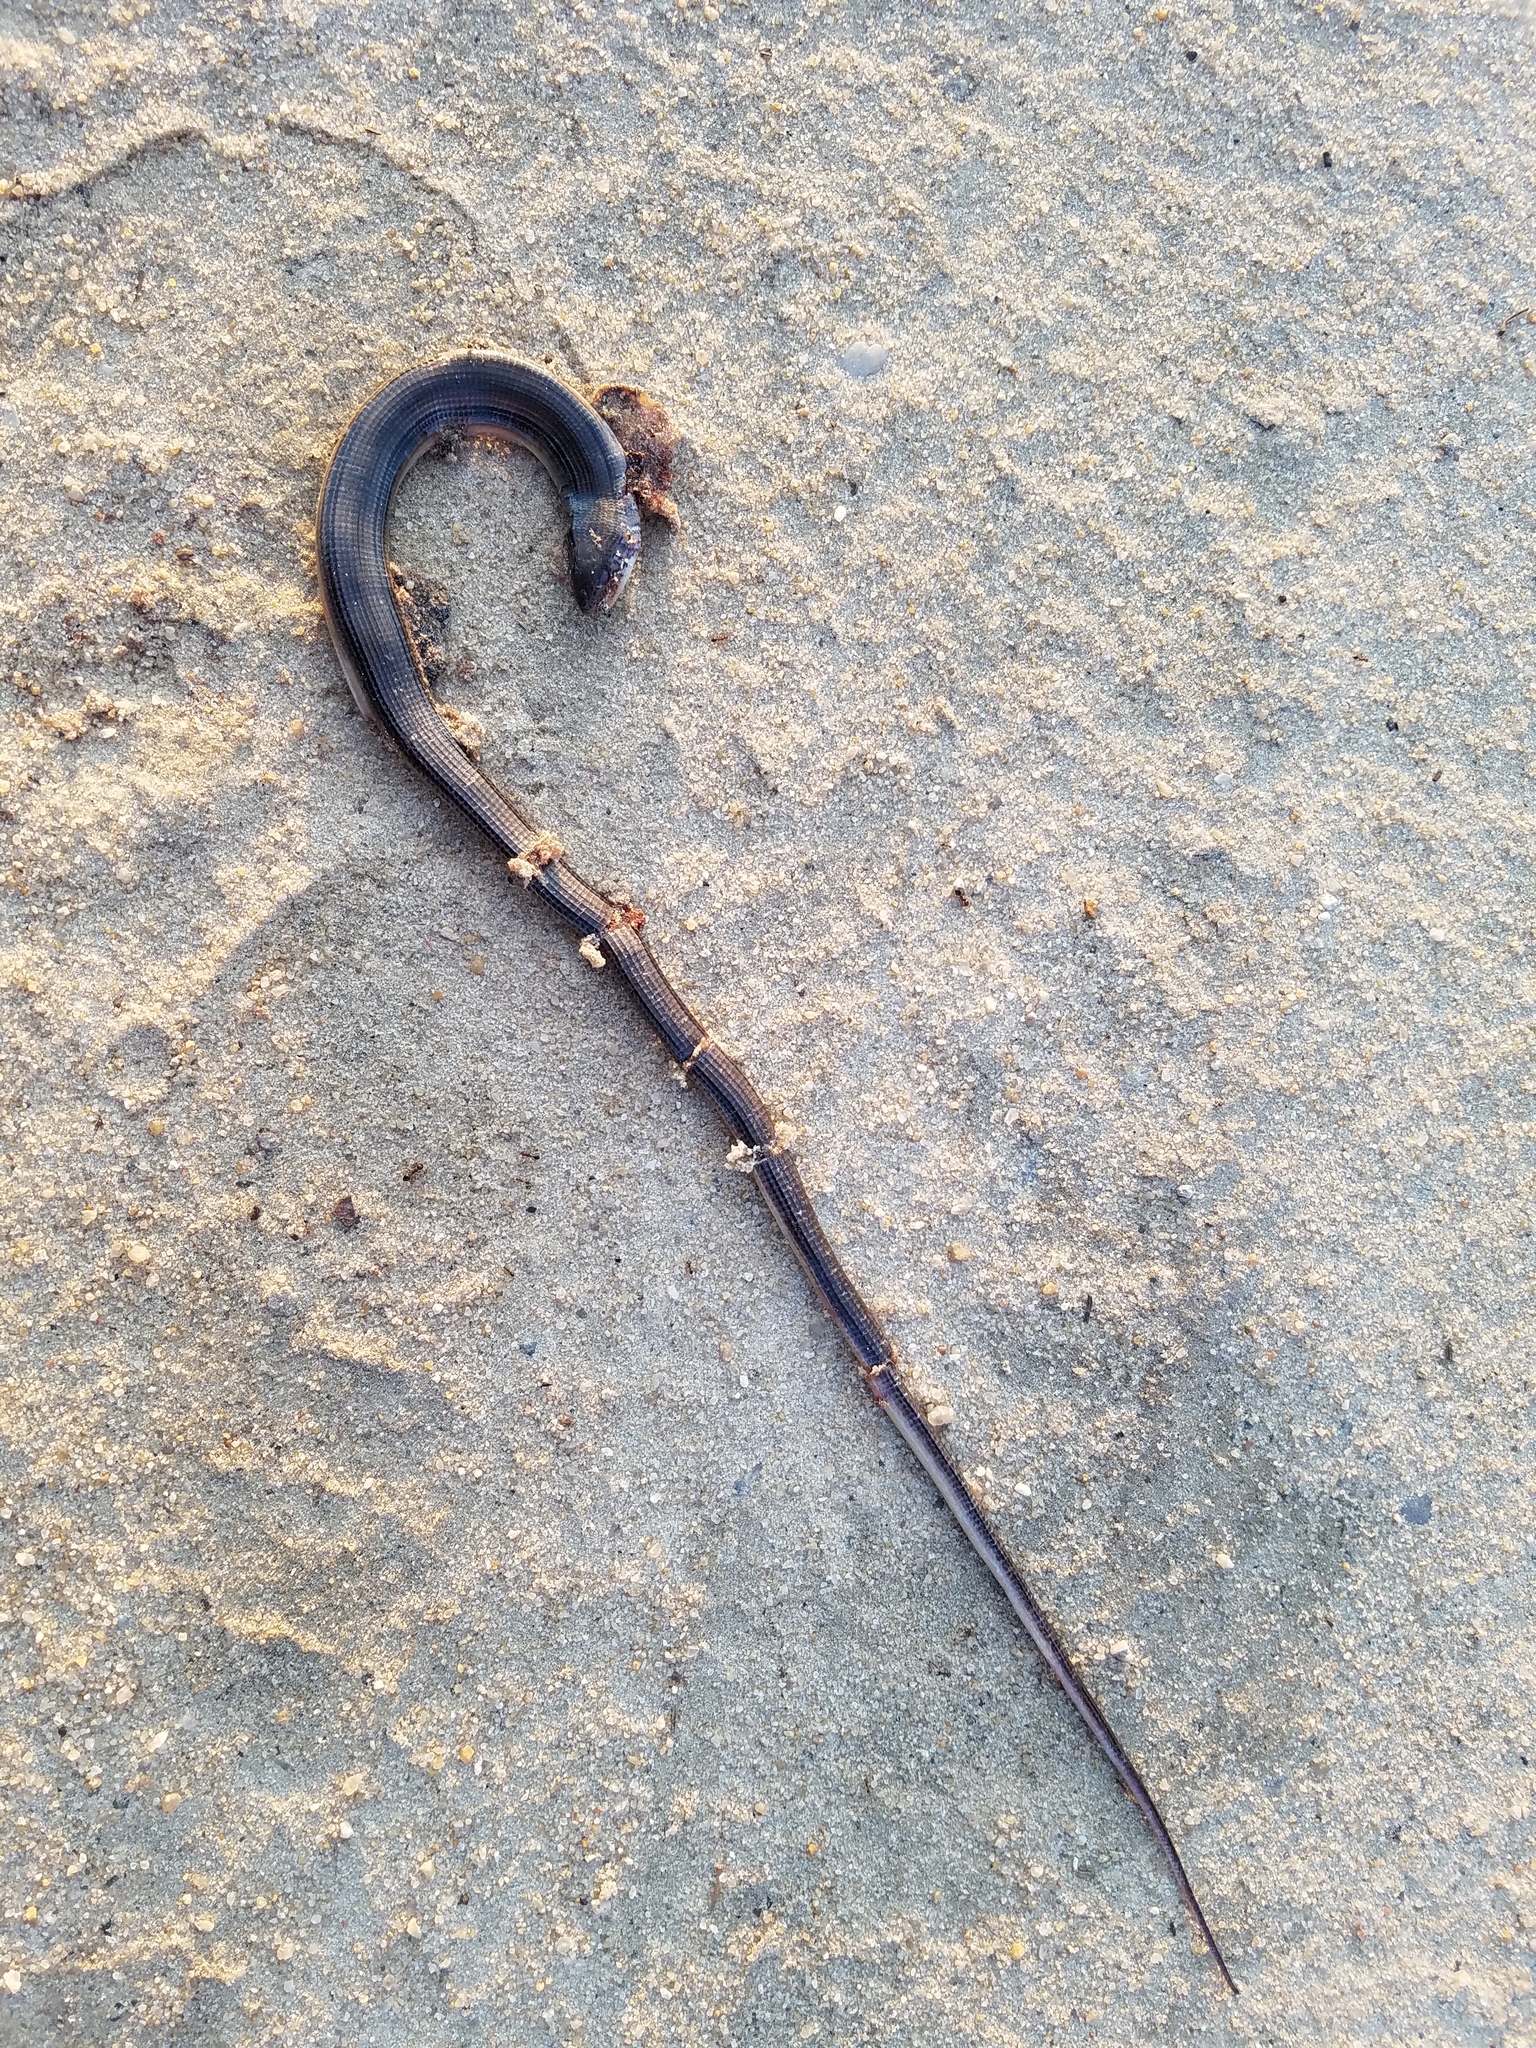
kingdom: Animalia
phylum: Chordata
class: Squamata
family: Anguidae
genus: Ophisaurus
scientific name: Ophisaurus ventralis
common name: Eastern glass lizard
